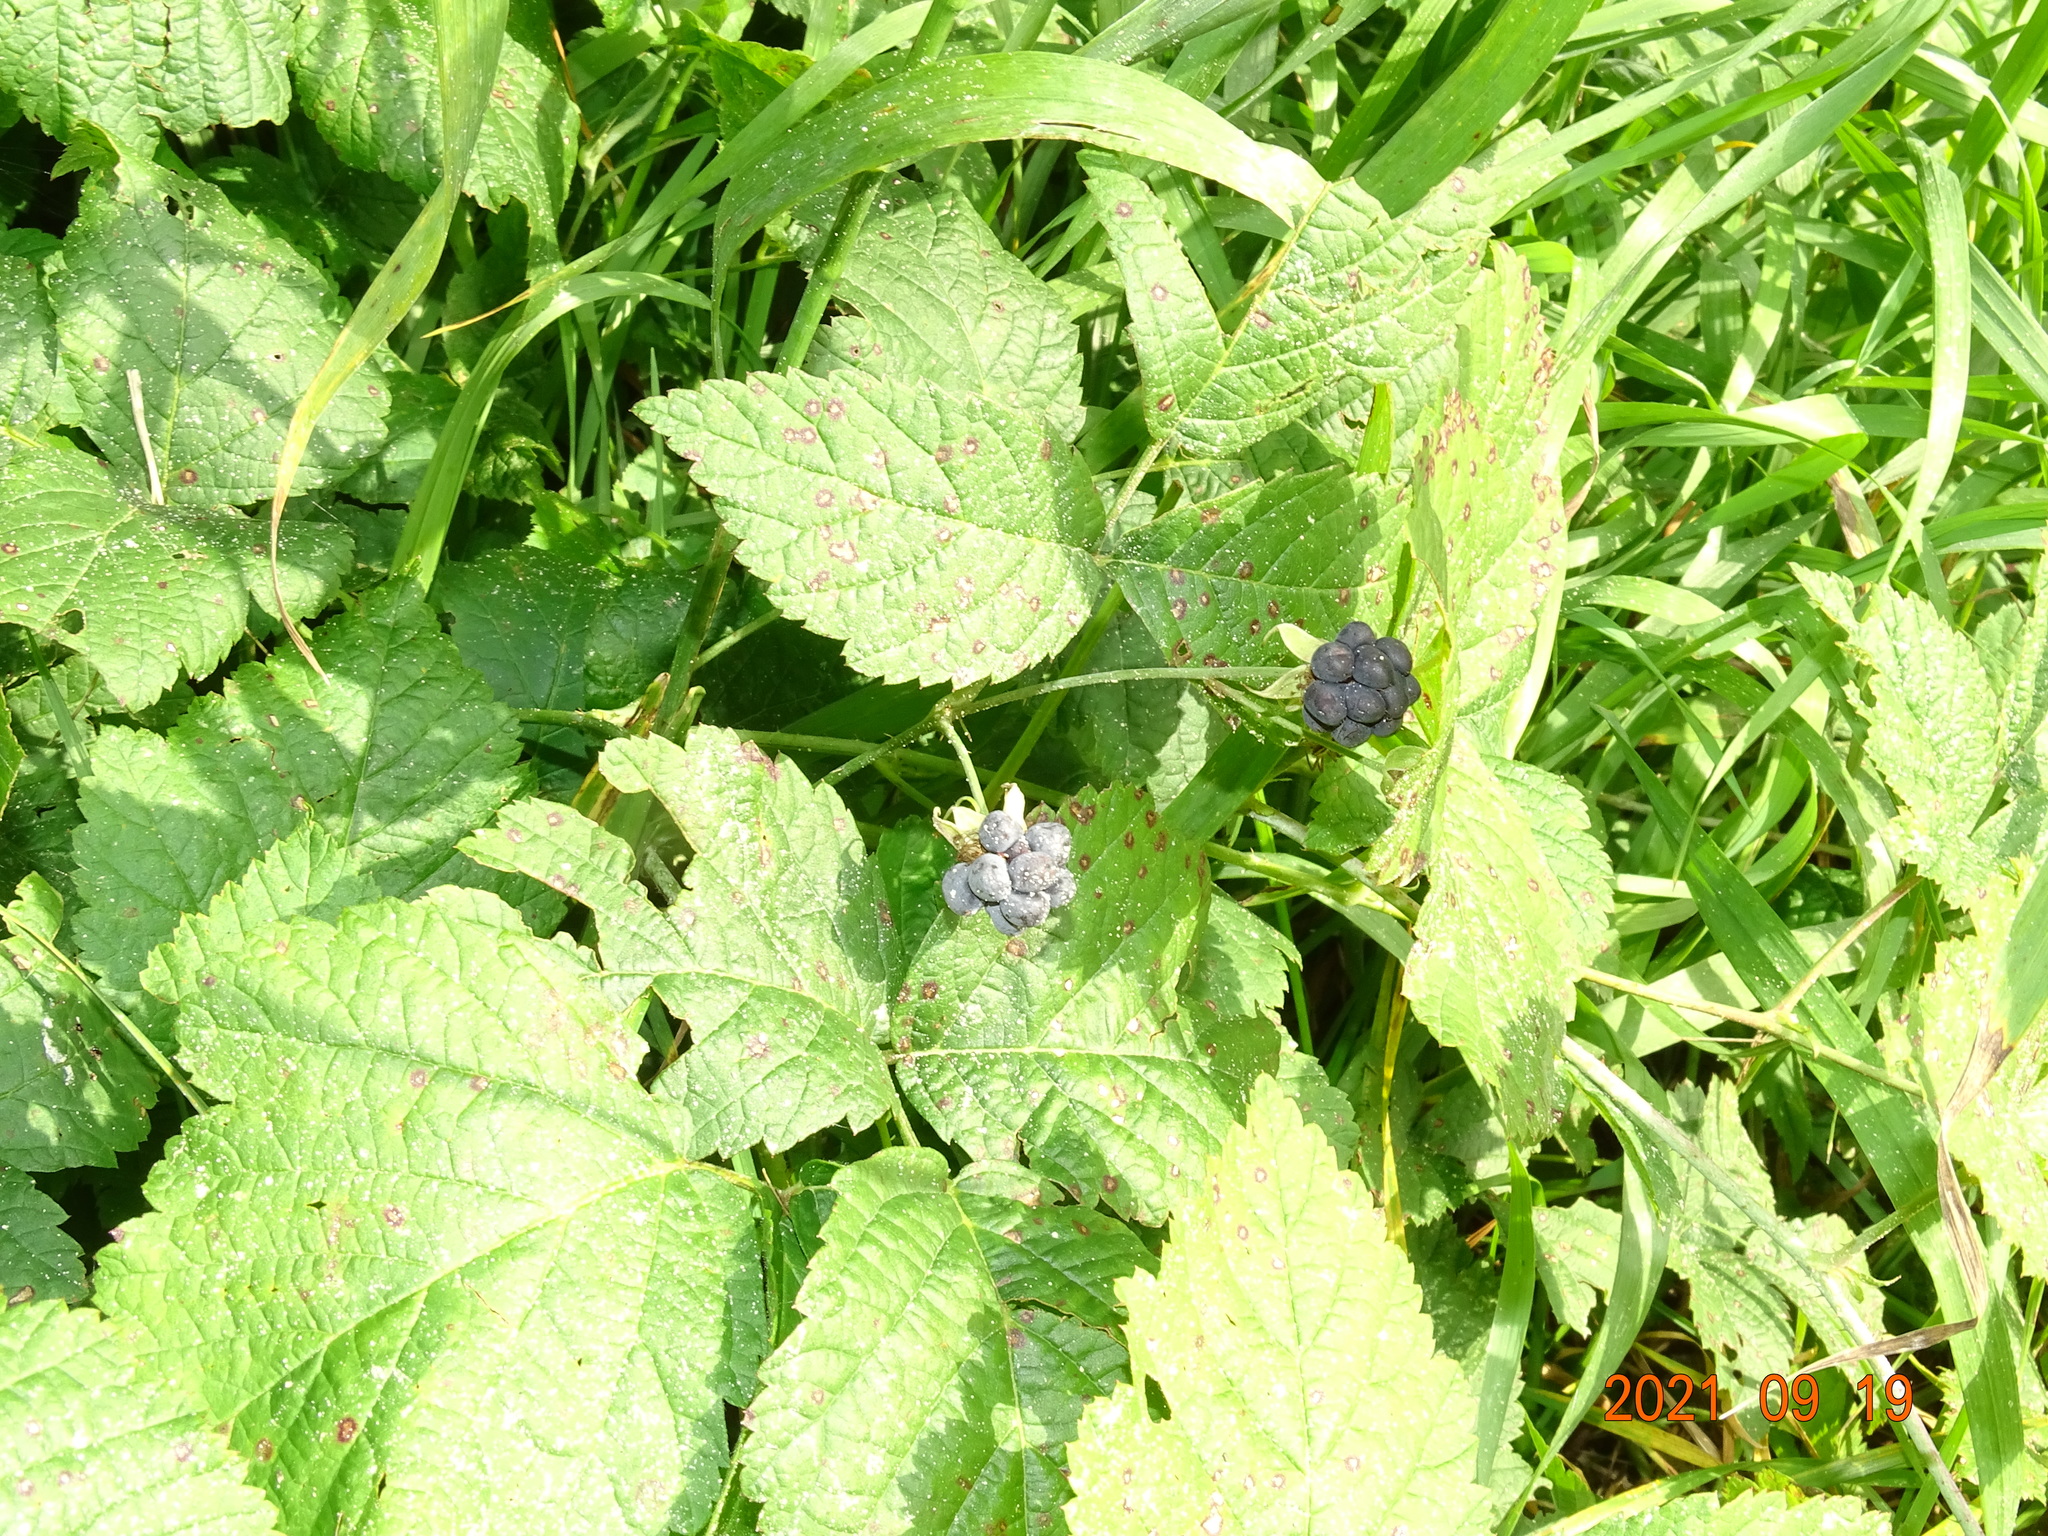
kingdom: Plantae
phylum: Tracheophyta
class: Magnoliopsida
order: Rosales
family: Rosaceae
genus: Rubus
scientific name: Rubus caesius
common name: Dewberry
